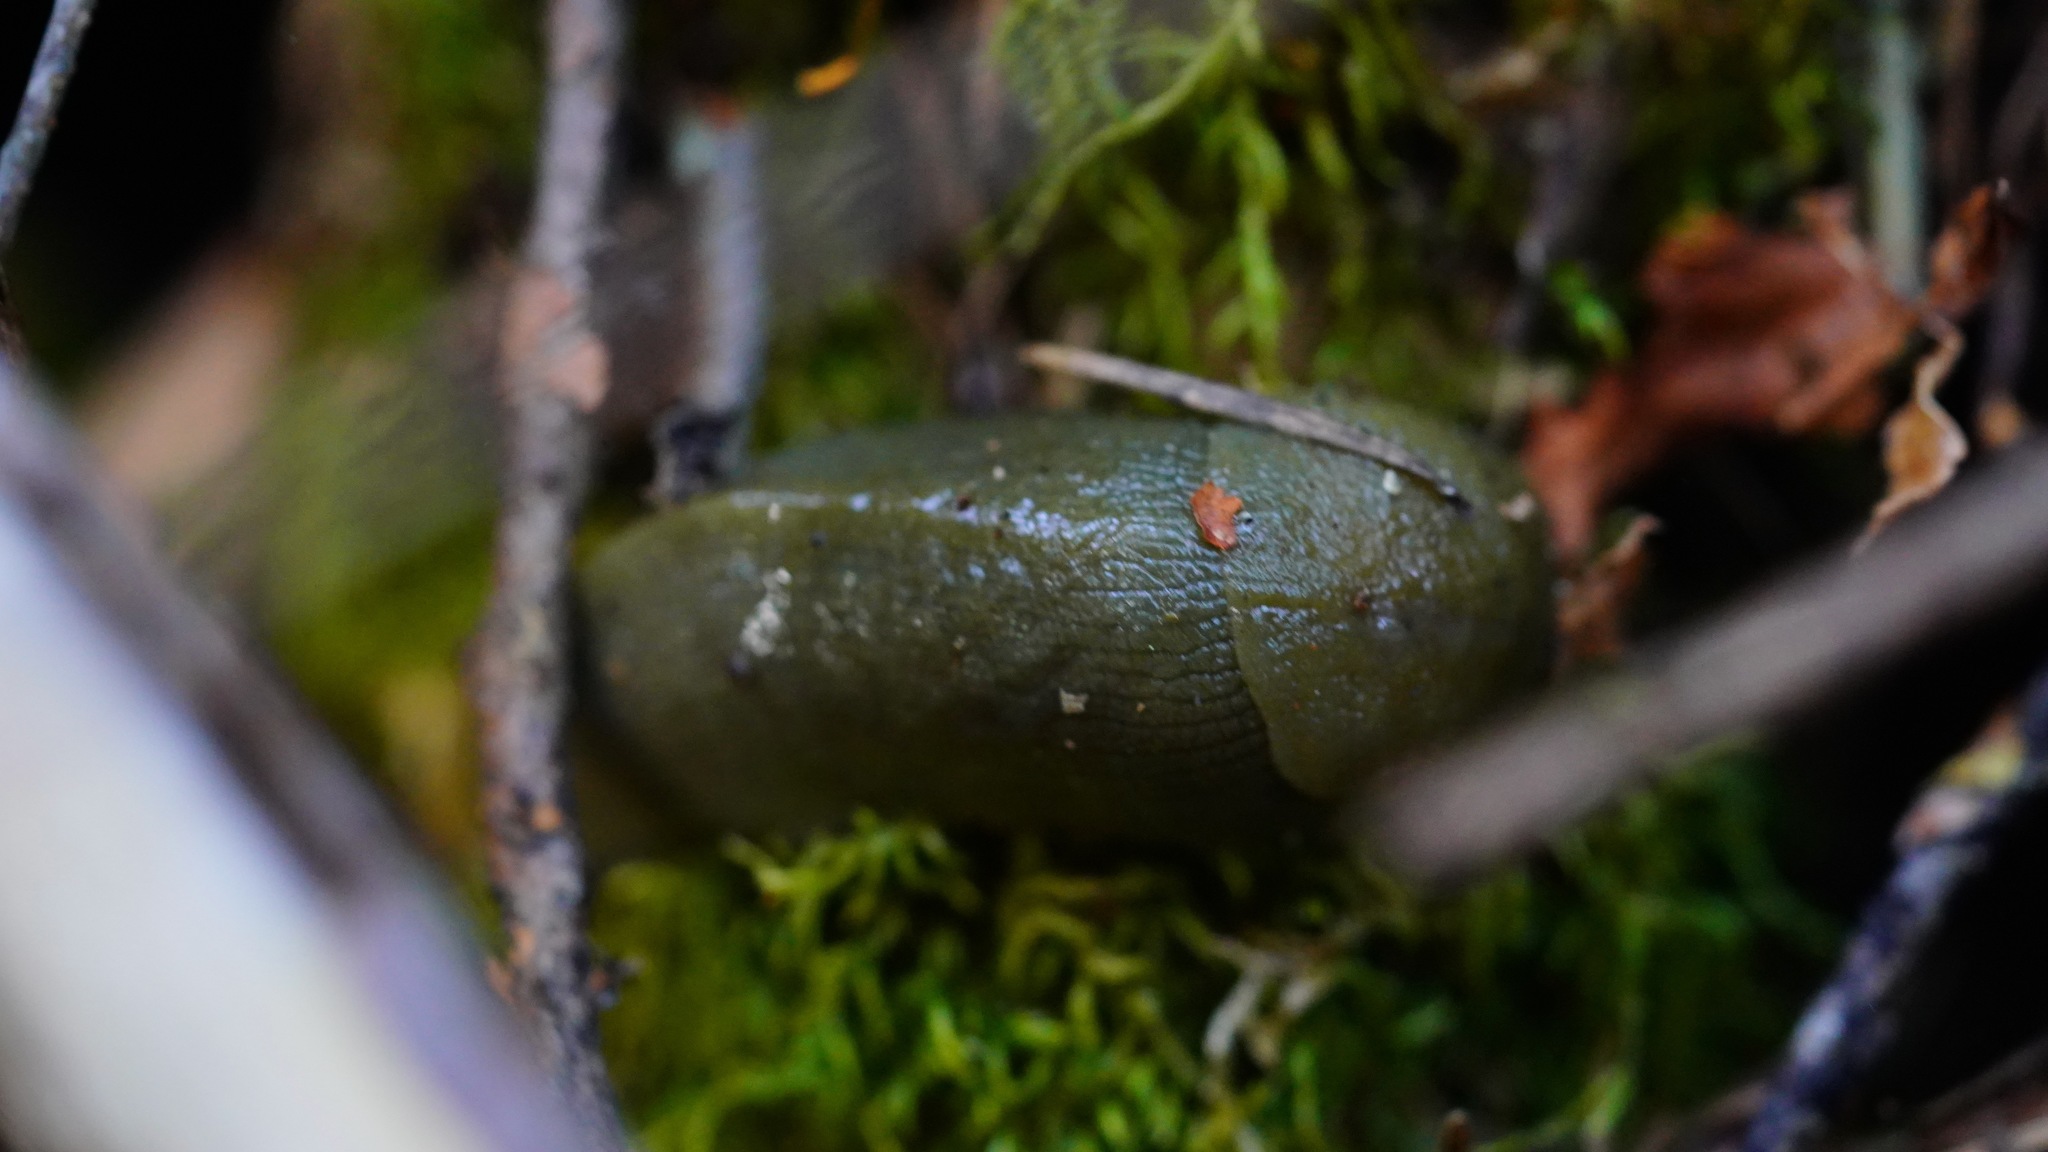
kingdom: Animalia
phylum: Mollusca
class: Gastropoda
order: Stylommatophora
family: Ariolimacidae
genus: Ariolimax
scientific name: Ariolimax buttoni
